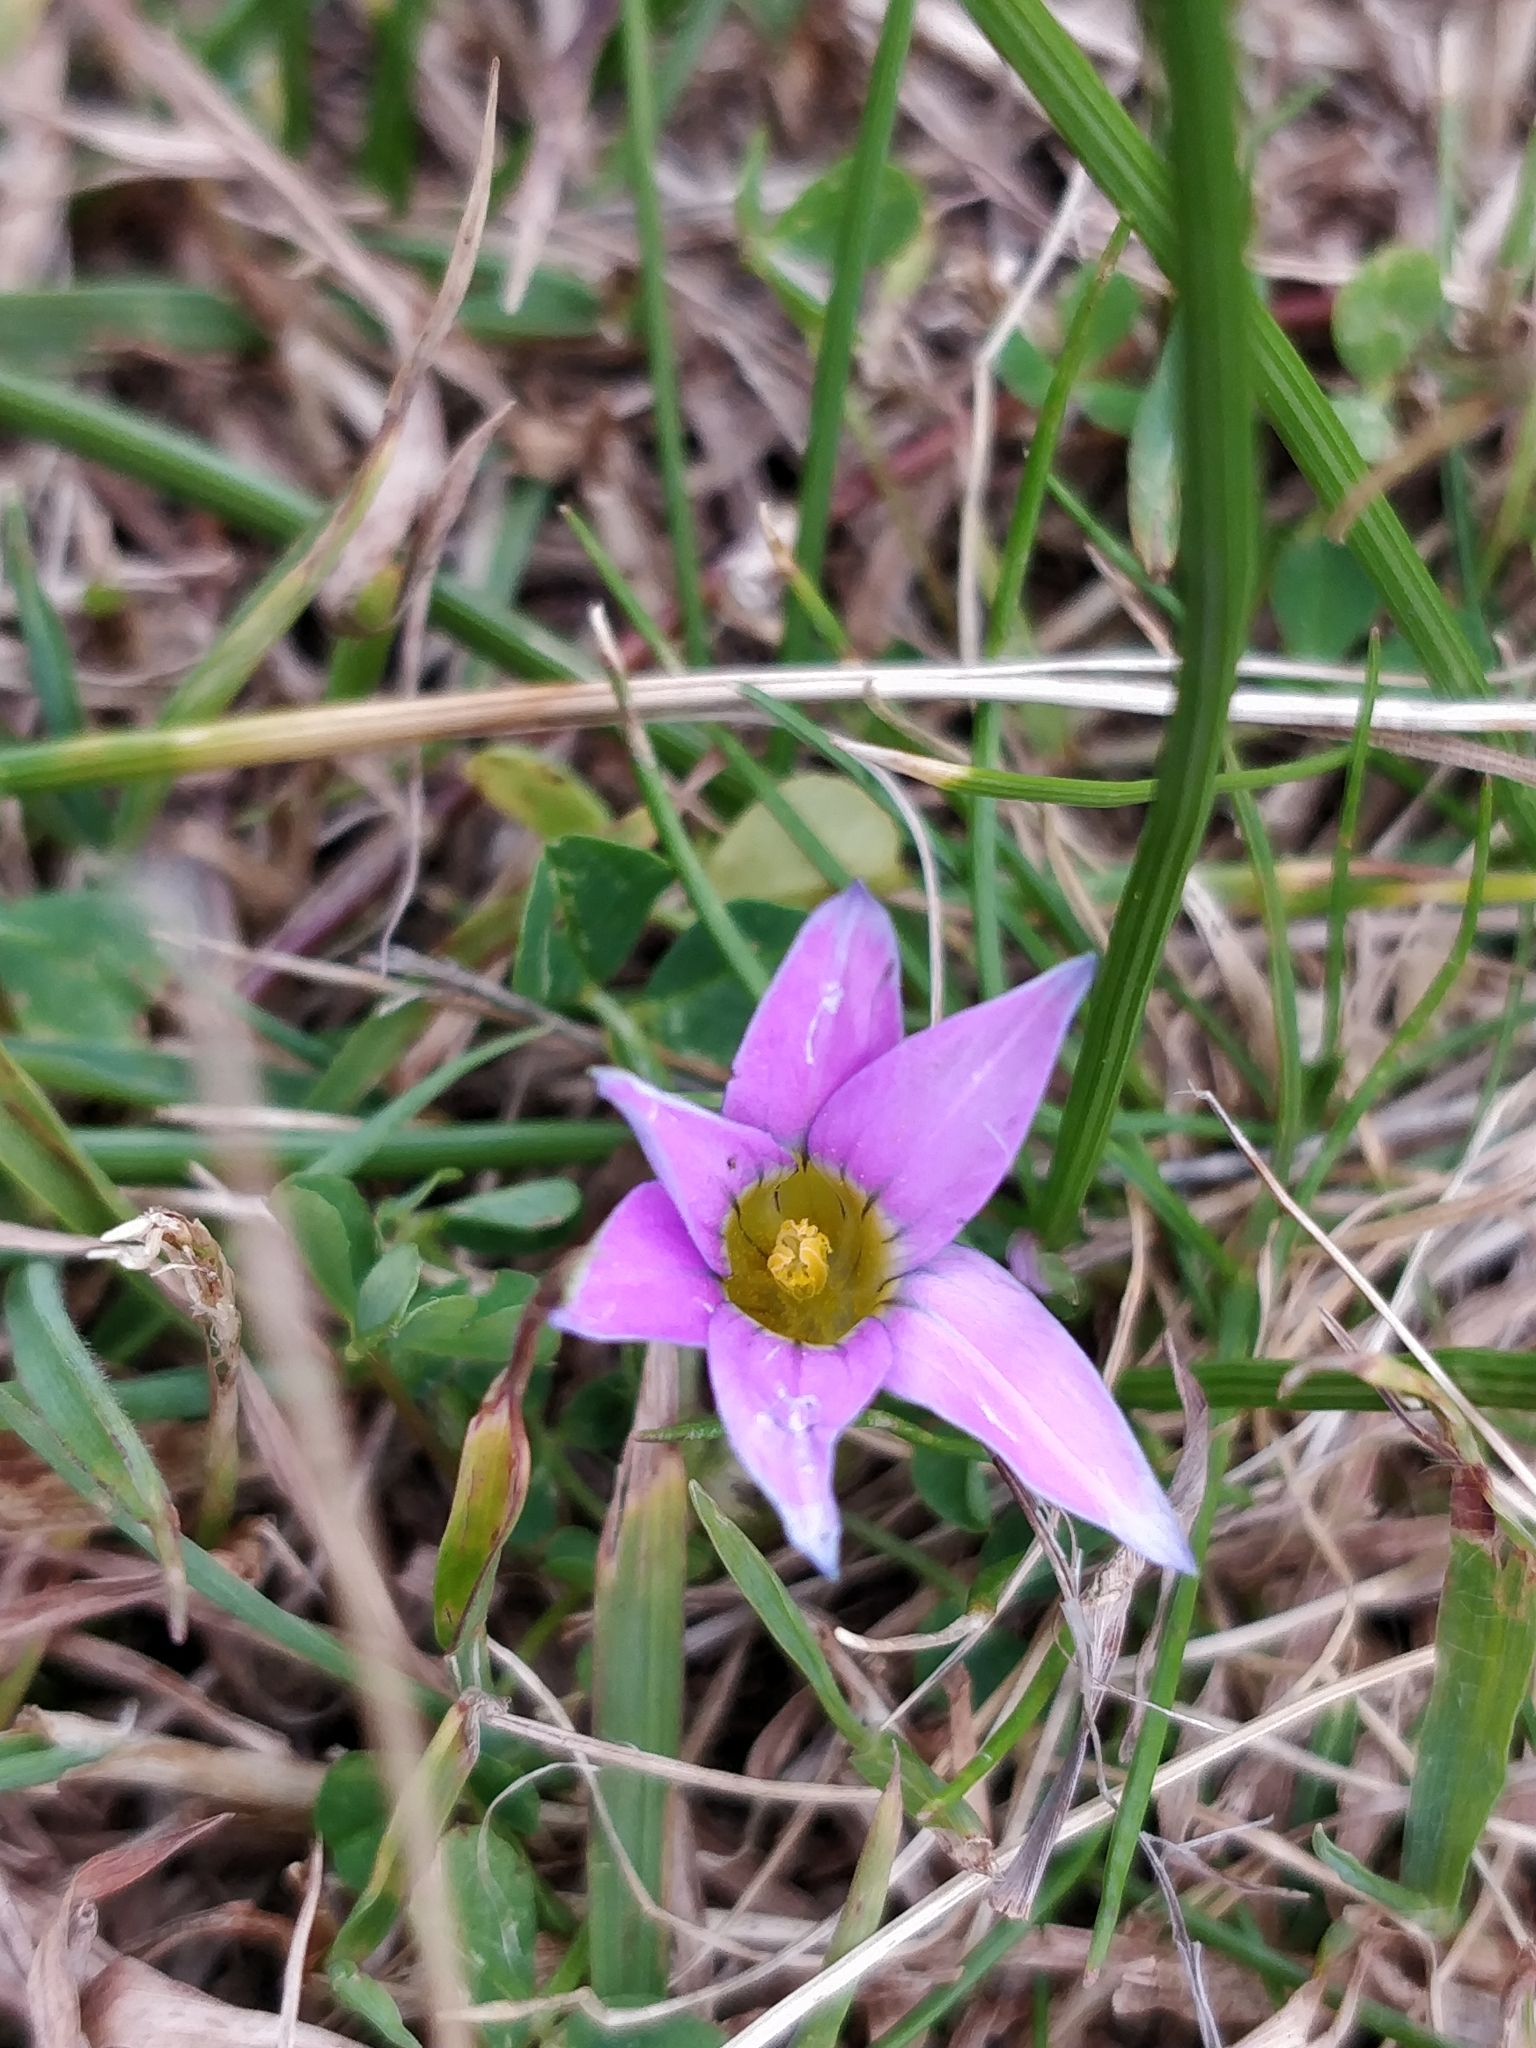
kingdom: Plantae
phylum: Tracheophyta
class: Liliopsida
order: Asparagales
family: Iridaceae
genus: Romulea
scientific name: Romulea rosea
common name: Oniongrass
